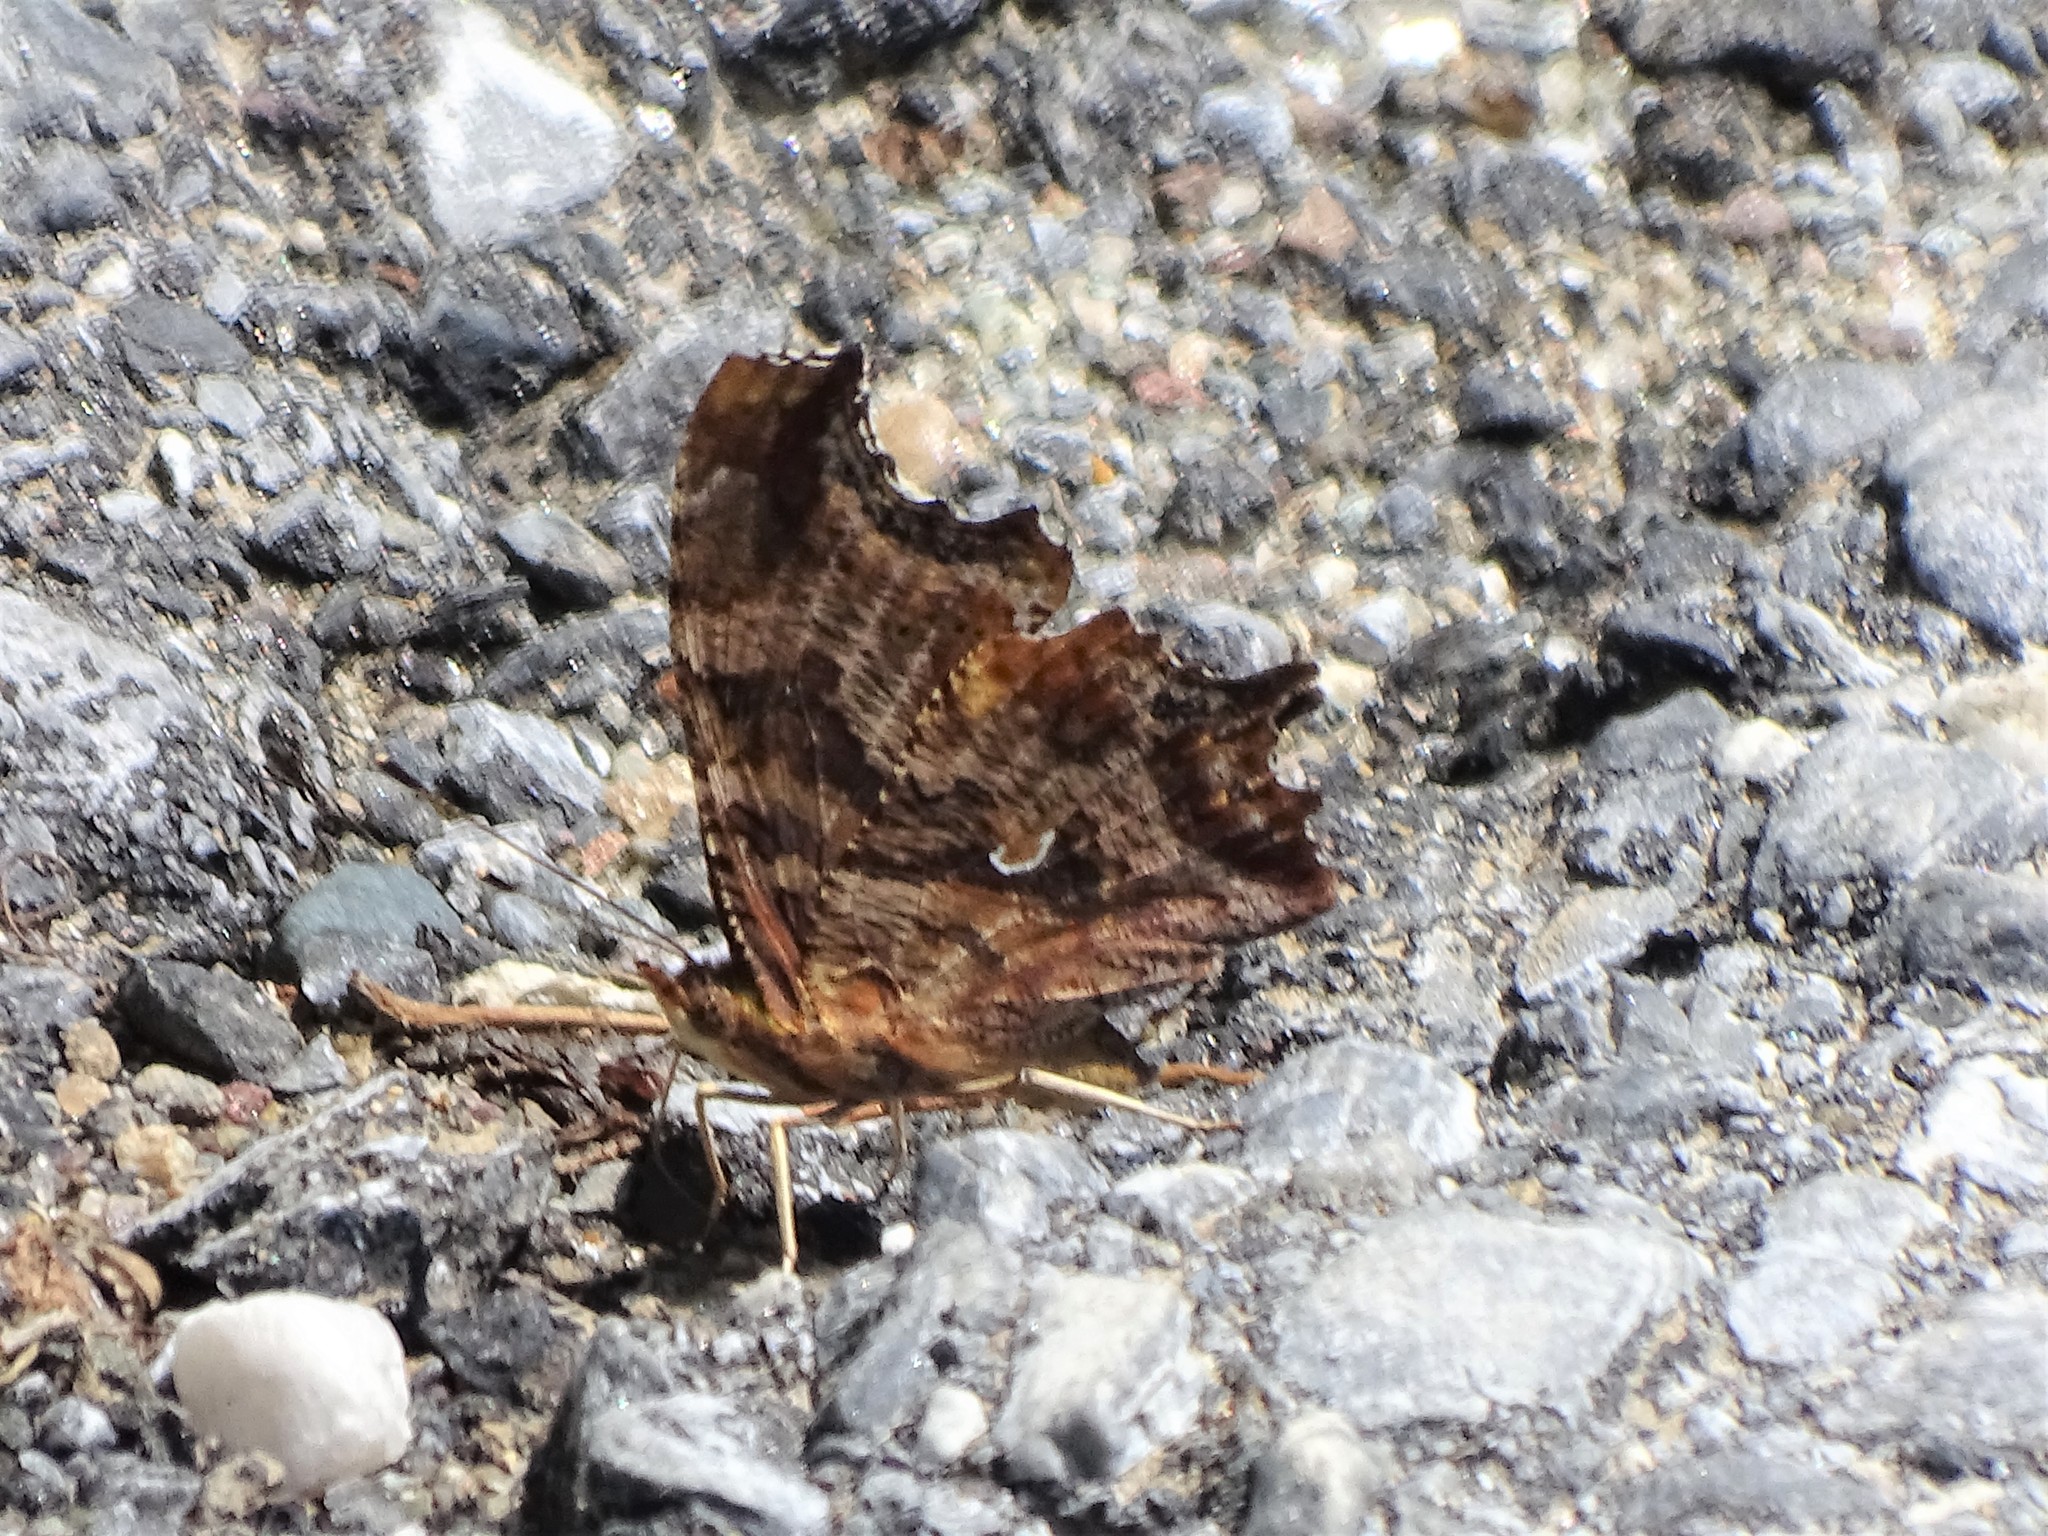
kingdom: Animalia
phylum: Arthropoda
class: Insecta
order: Lepidoptera
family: Nymphalidae
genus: Polygonia
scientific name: Polygonia comma
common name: Eastern comma
